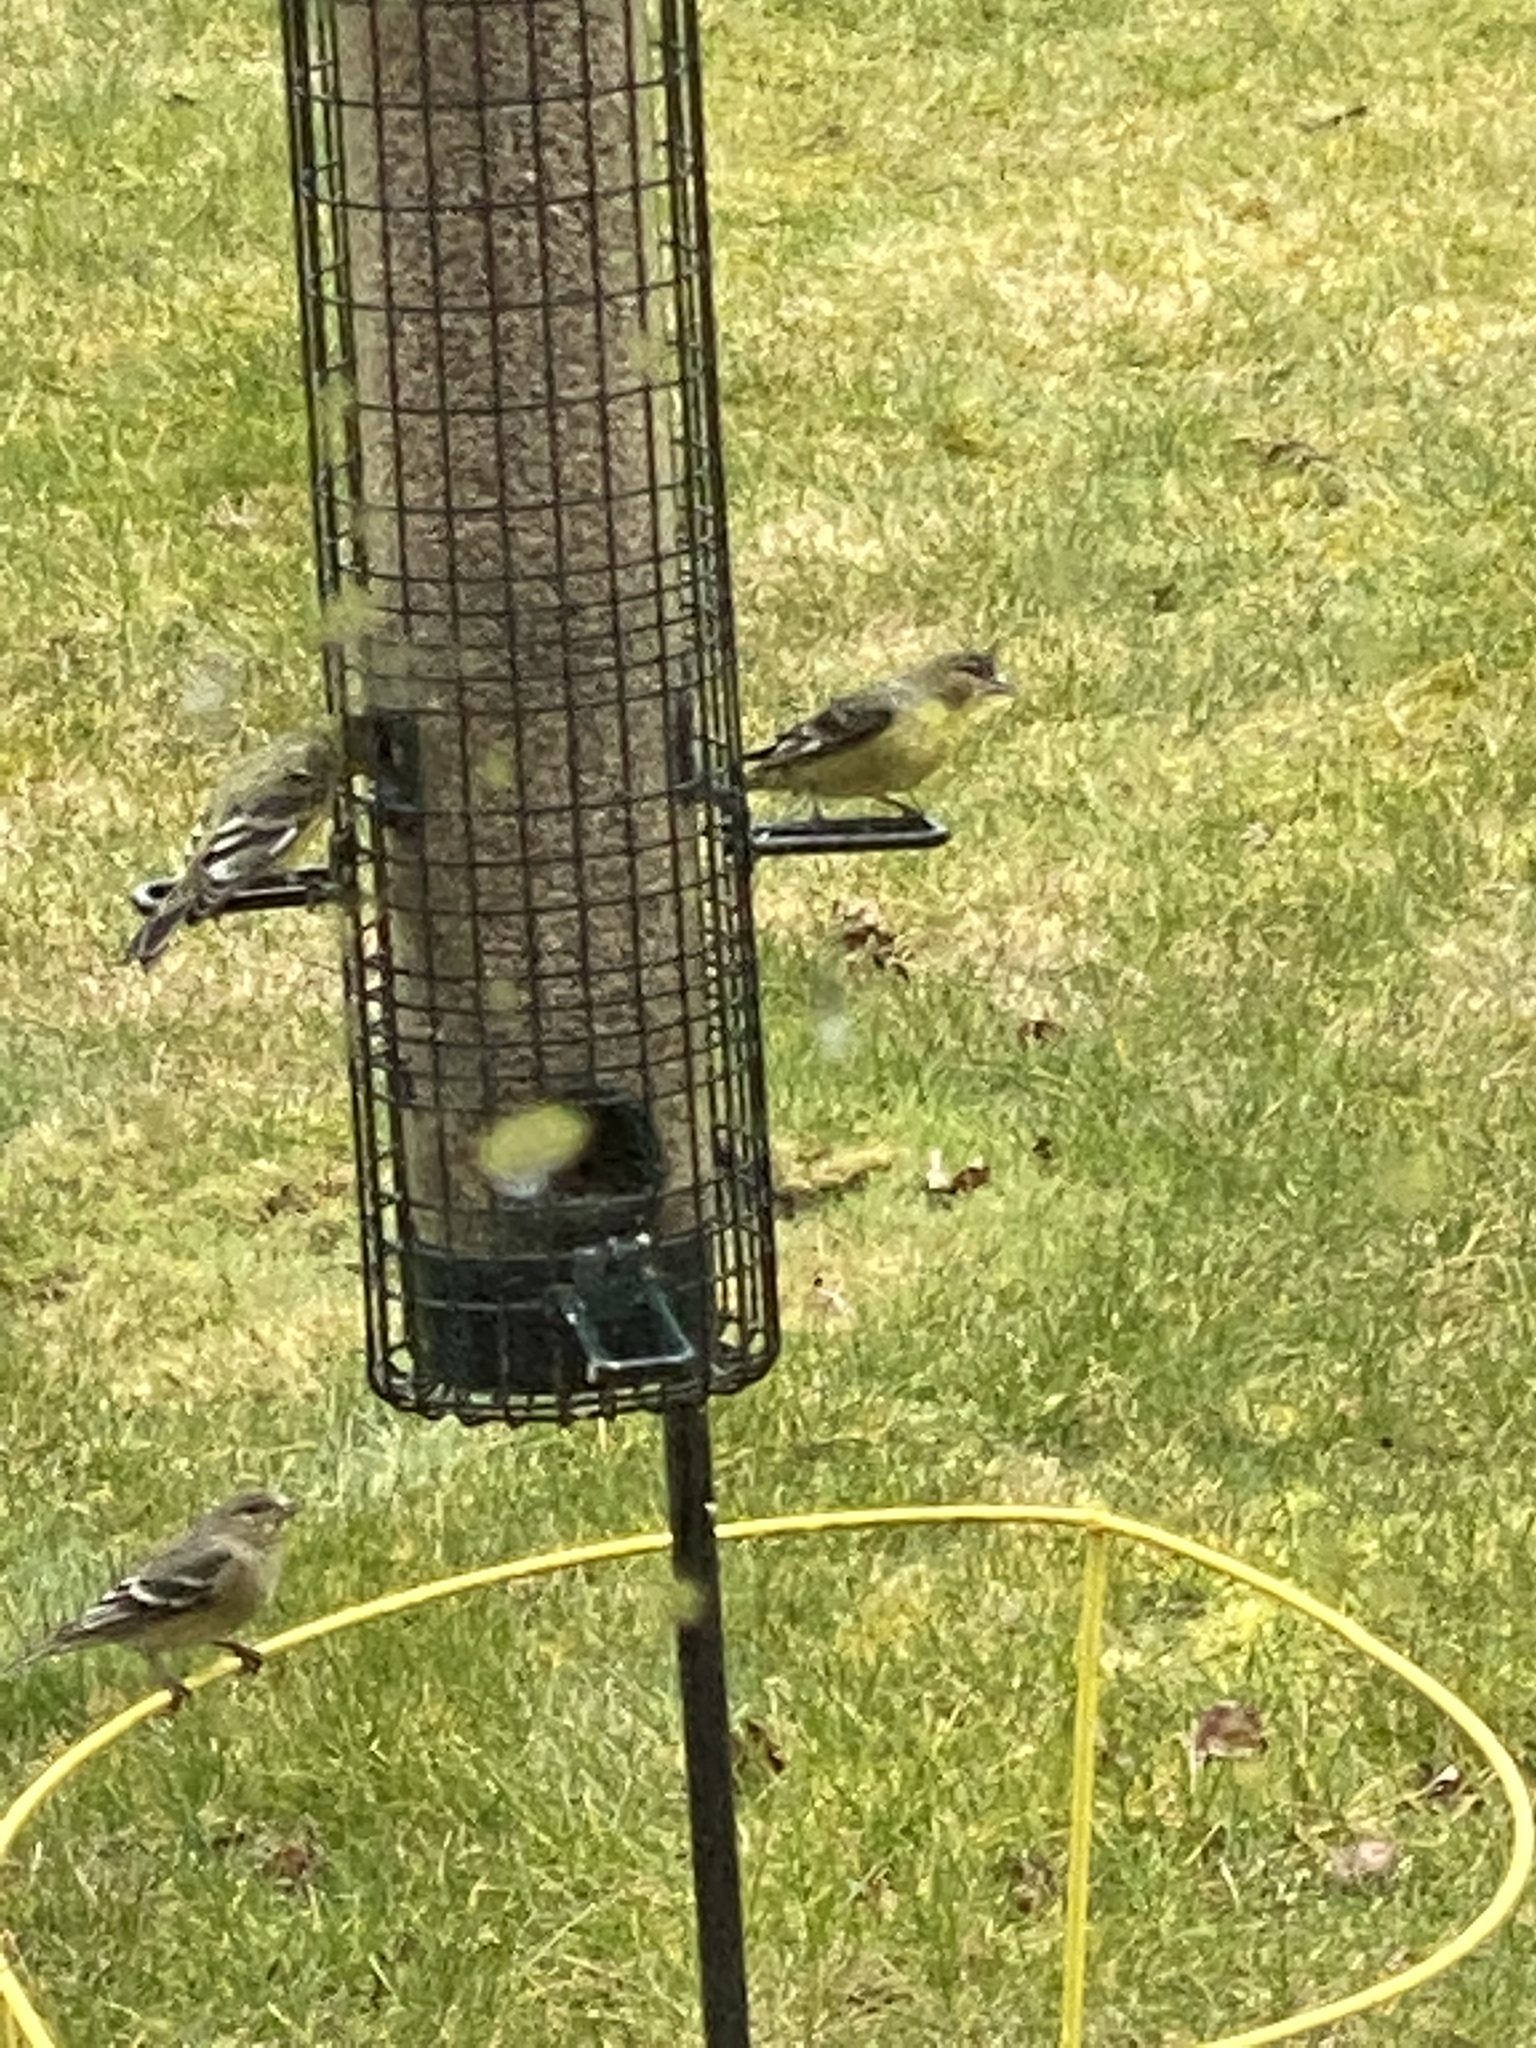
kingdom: Animalia
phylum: Chordata
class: Aves
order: Passeriformes
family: Fringillidae
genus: Spinus
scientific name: Spinus psaltria
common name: Lesser goldfinch
